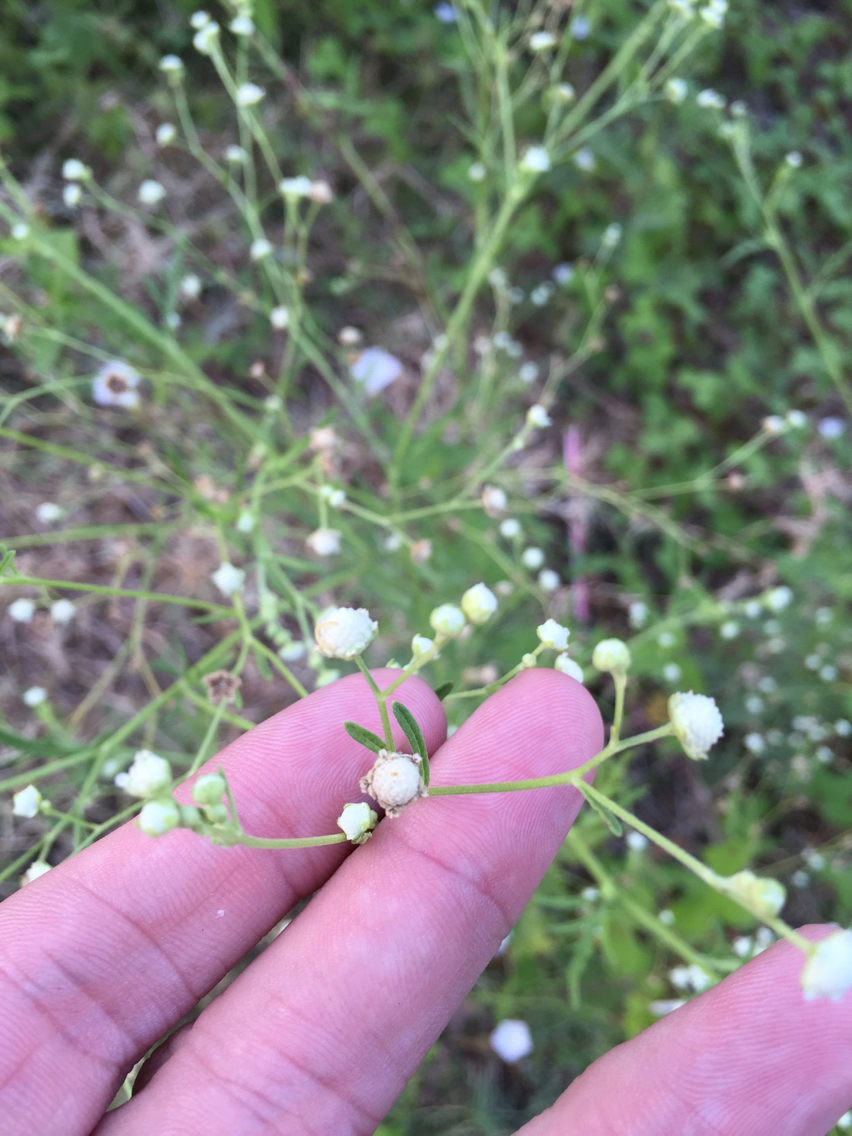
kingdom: Plantae
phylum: Tracheophyta
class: Magnoliopsida
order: Asterales
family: Asteraceae
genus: Parthenium
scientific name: Parthenium hysterophorus
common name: Santa maria feverfew
